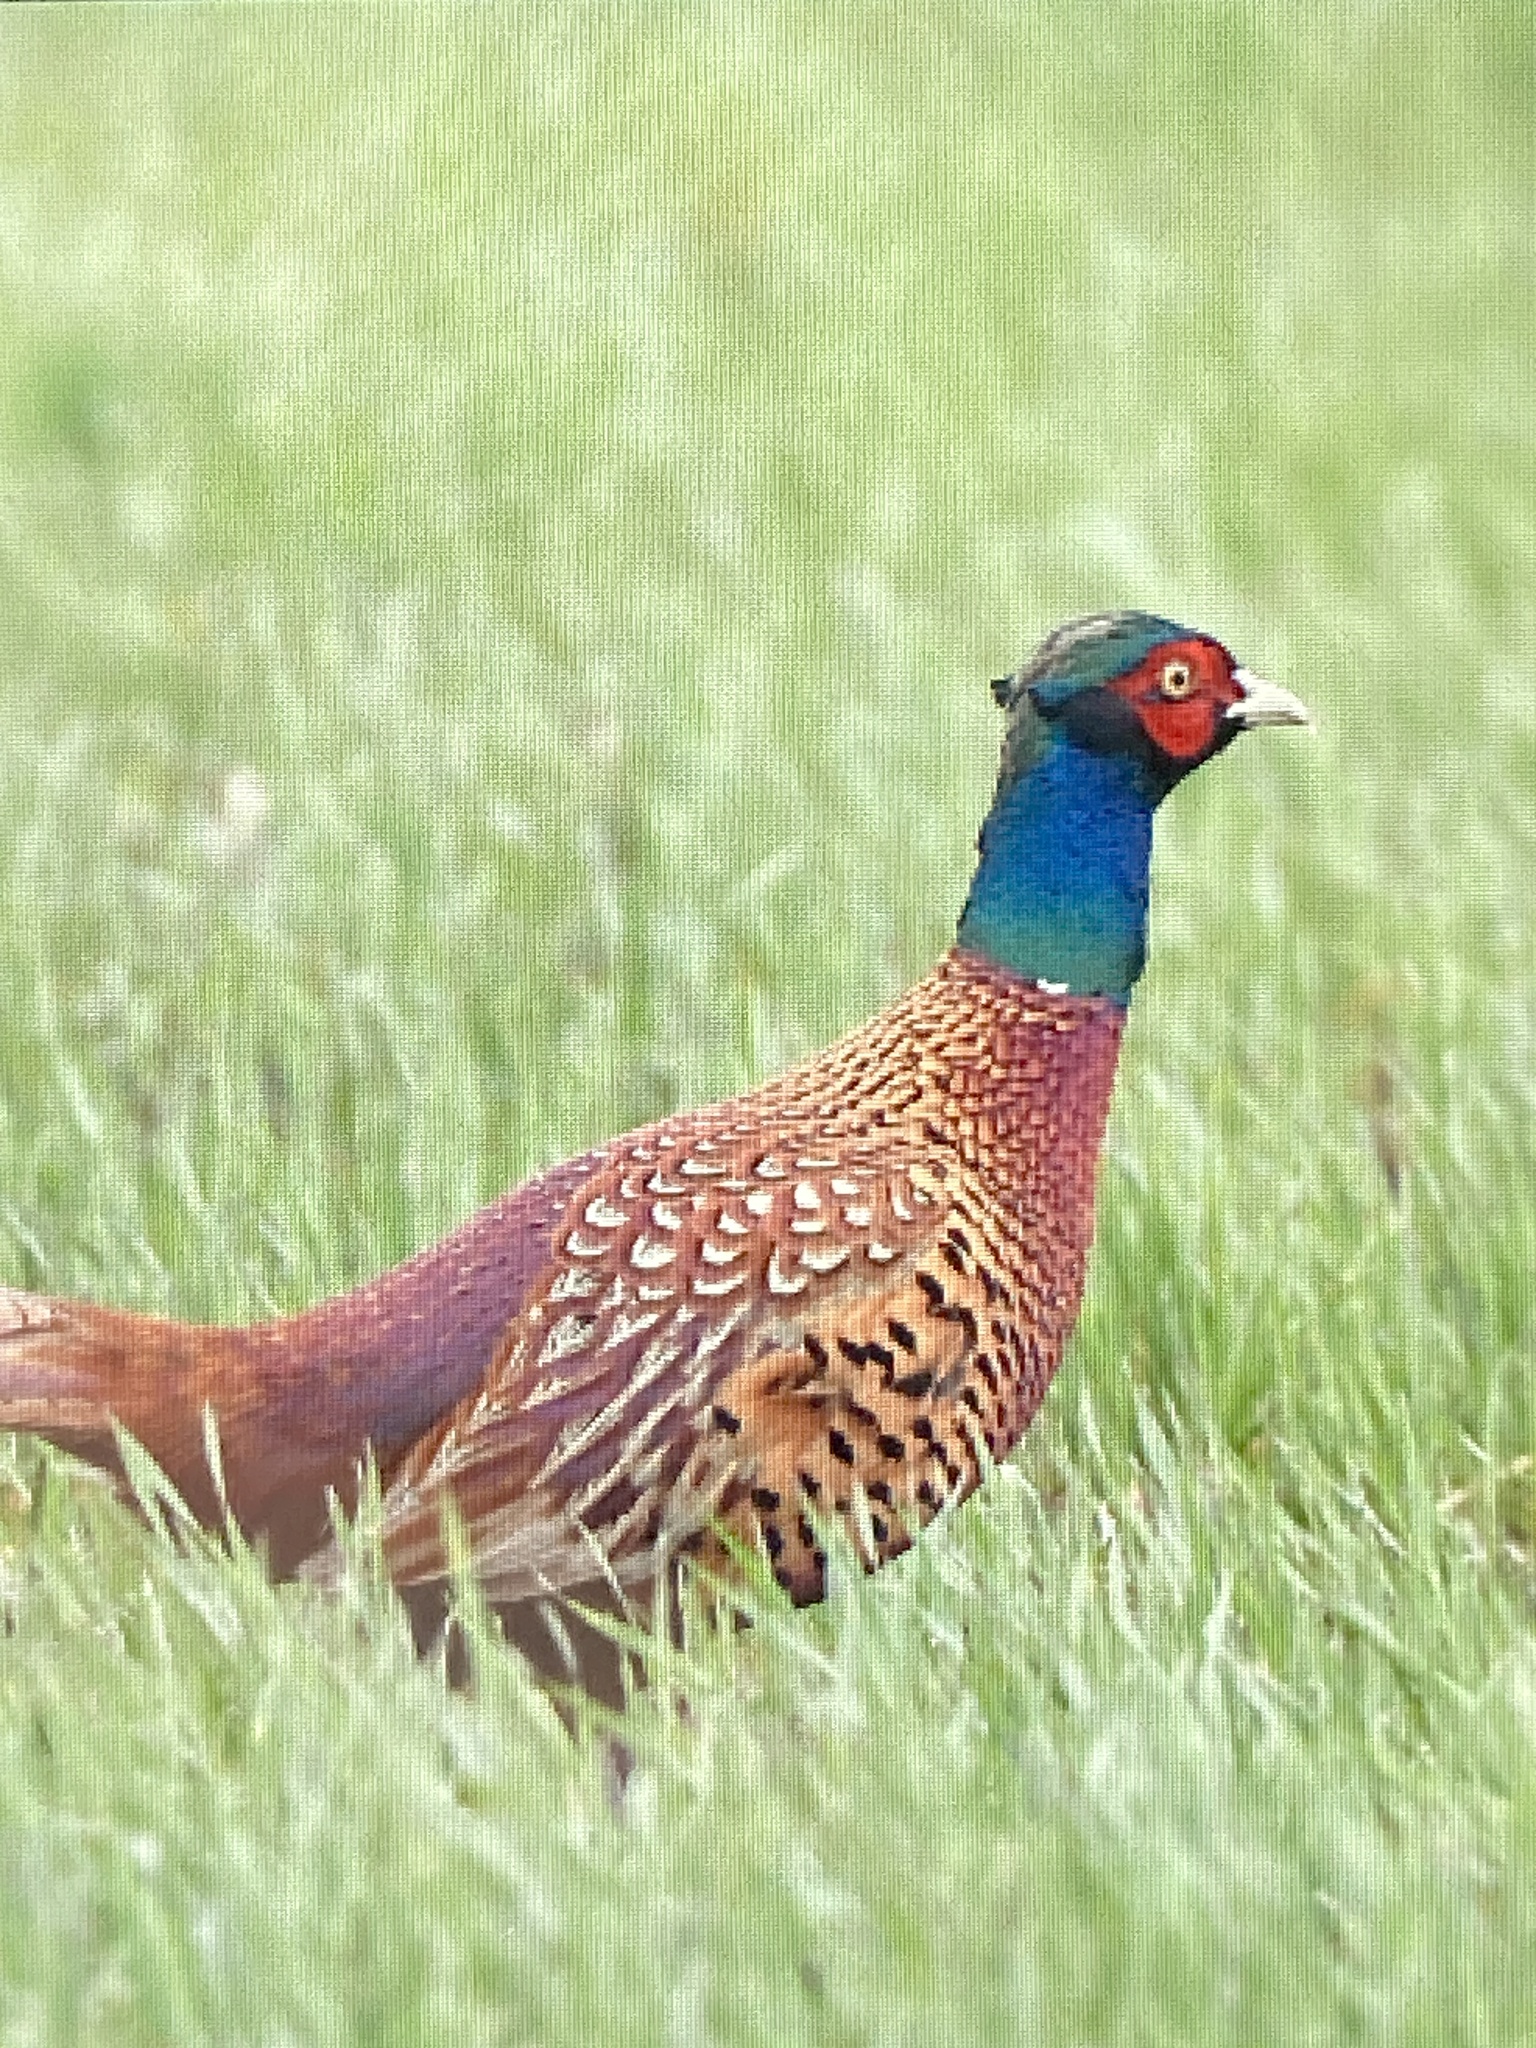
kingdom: Animalia
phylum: Chordata
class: Aves
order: Galliformes
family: Phasianidae
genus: Phasianus
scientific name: Phasianus colchicus
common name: Common pheasant
